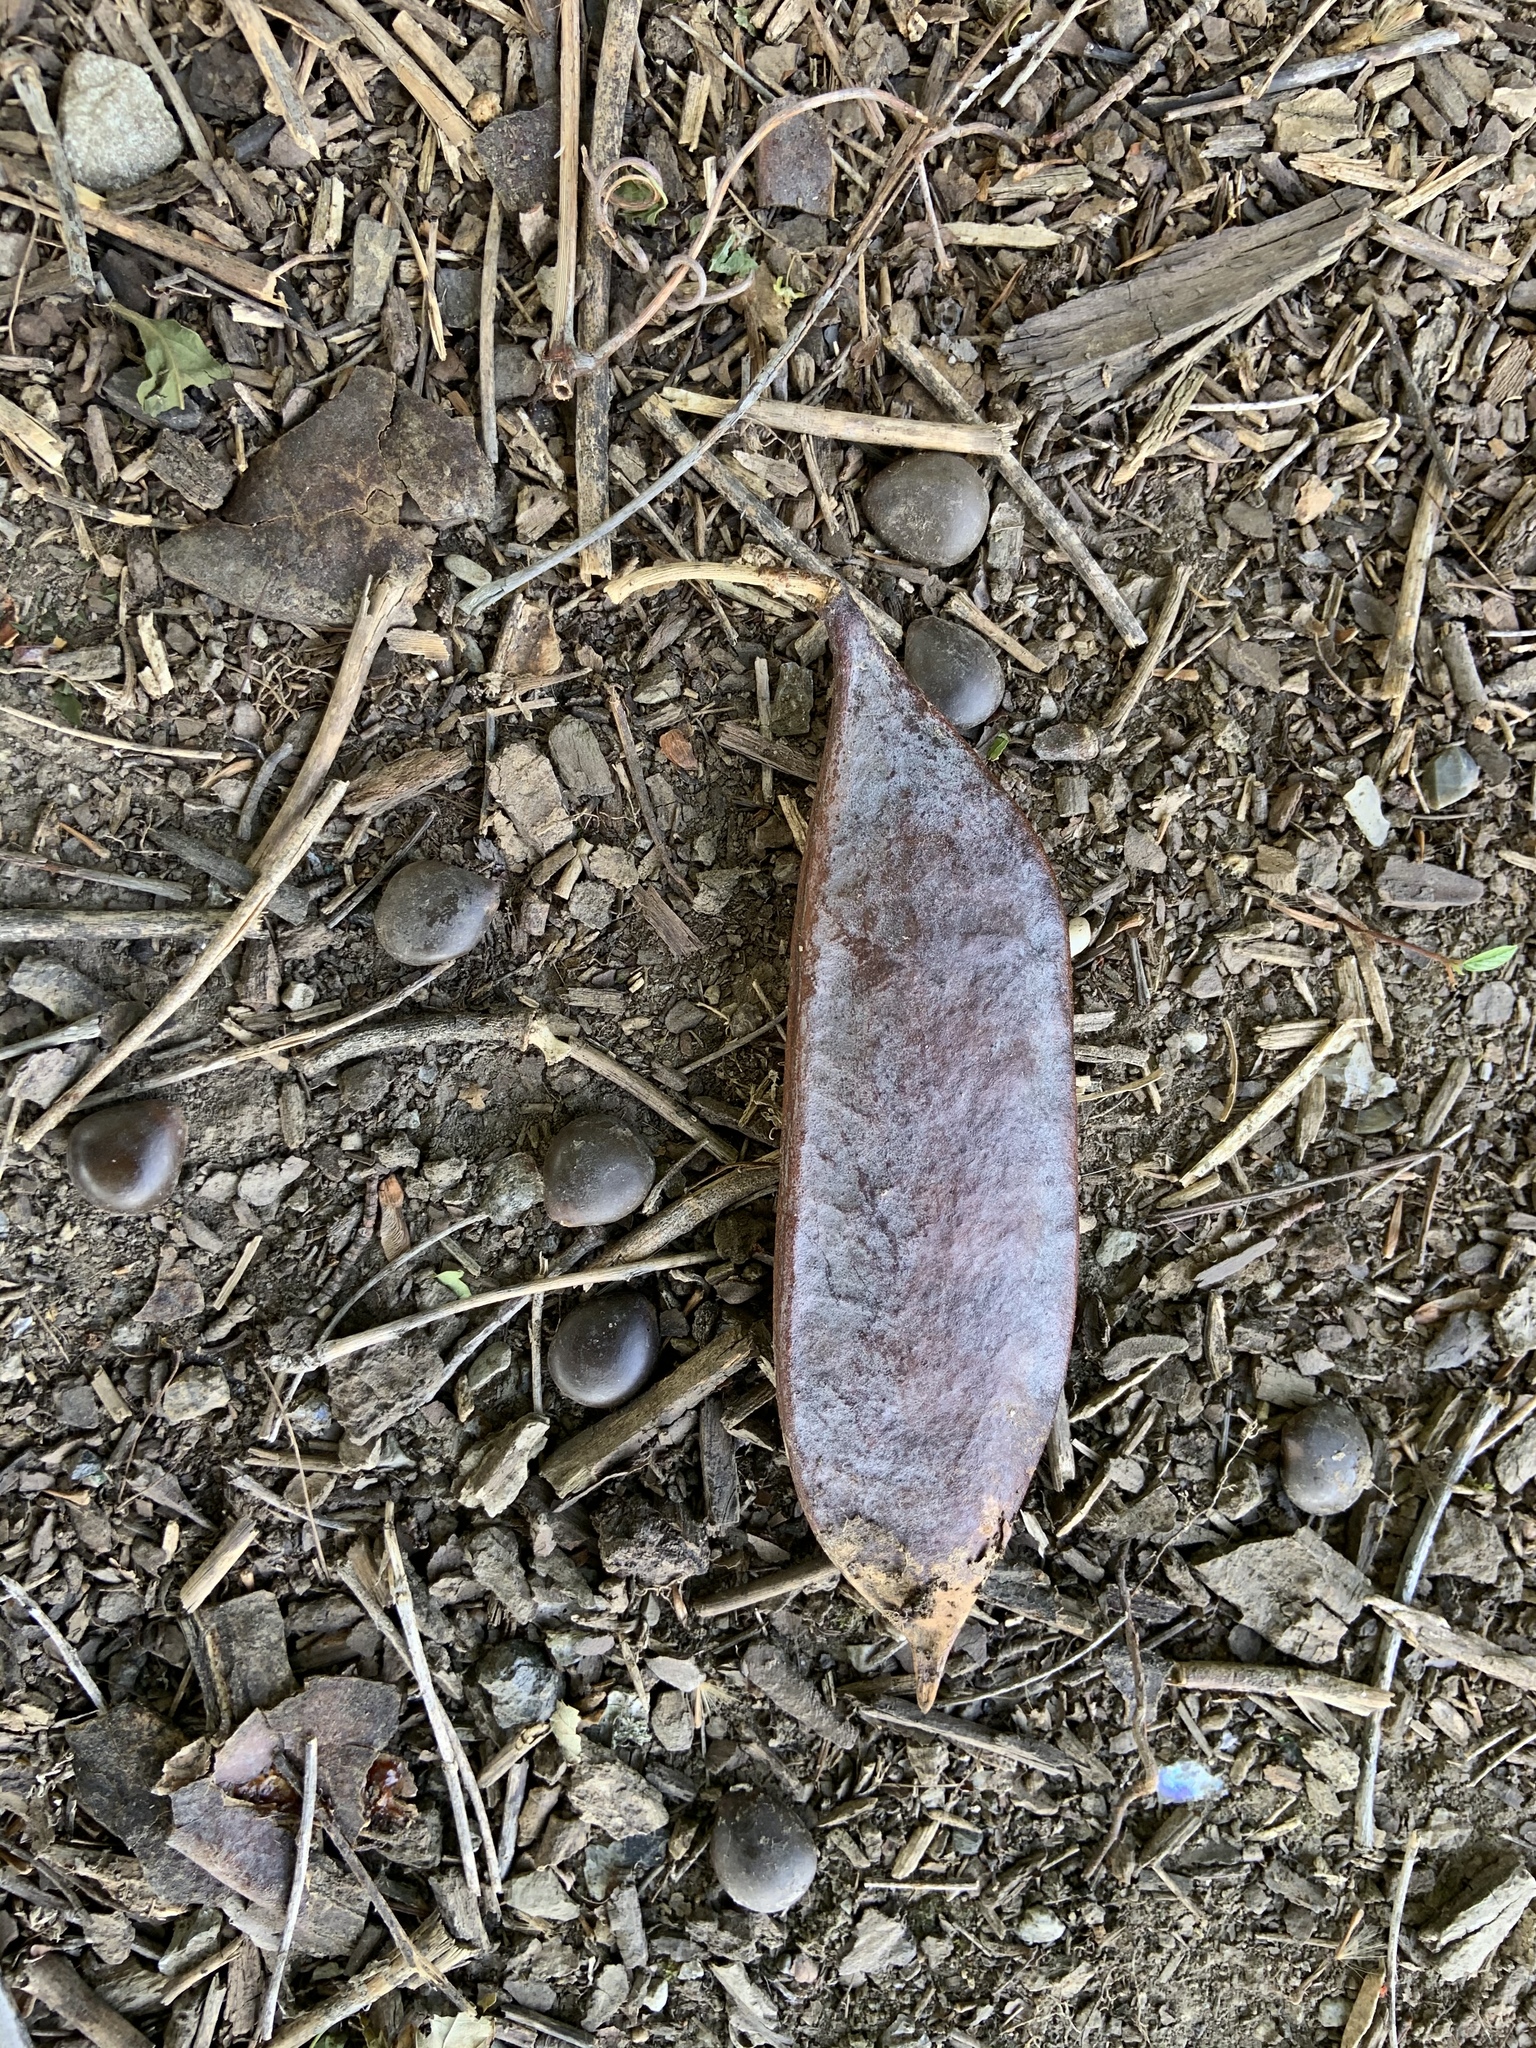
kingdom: Plantae
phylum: Tracheophyta
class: Magnoliopsida
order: Fabales
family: Fabaceae
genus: Gymnocladus
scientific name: Gymnocladus dioicus
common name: Kentucky coffee-tree
